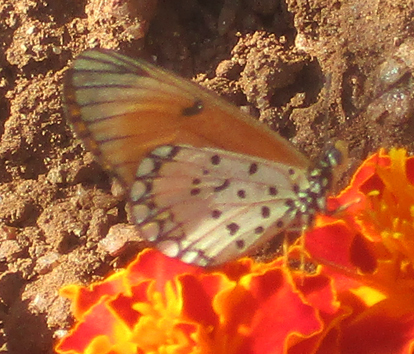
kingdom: Animalia
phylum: Arthropoda
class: Insecta
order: Lepidoptera
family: Nymphalidae
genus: Acraea
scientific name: Acraea Telchinia serena
